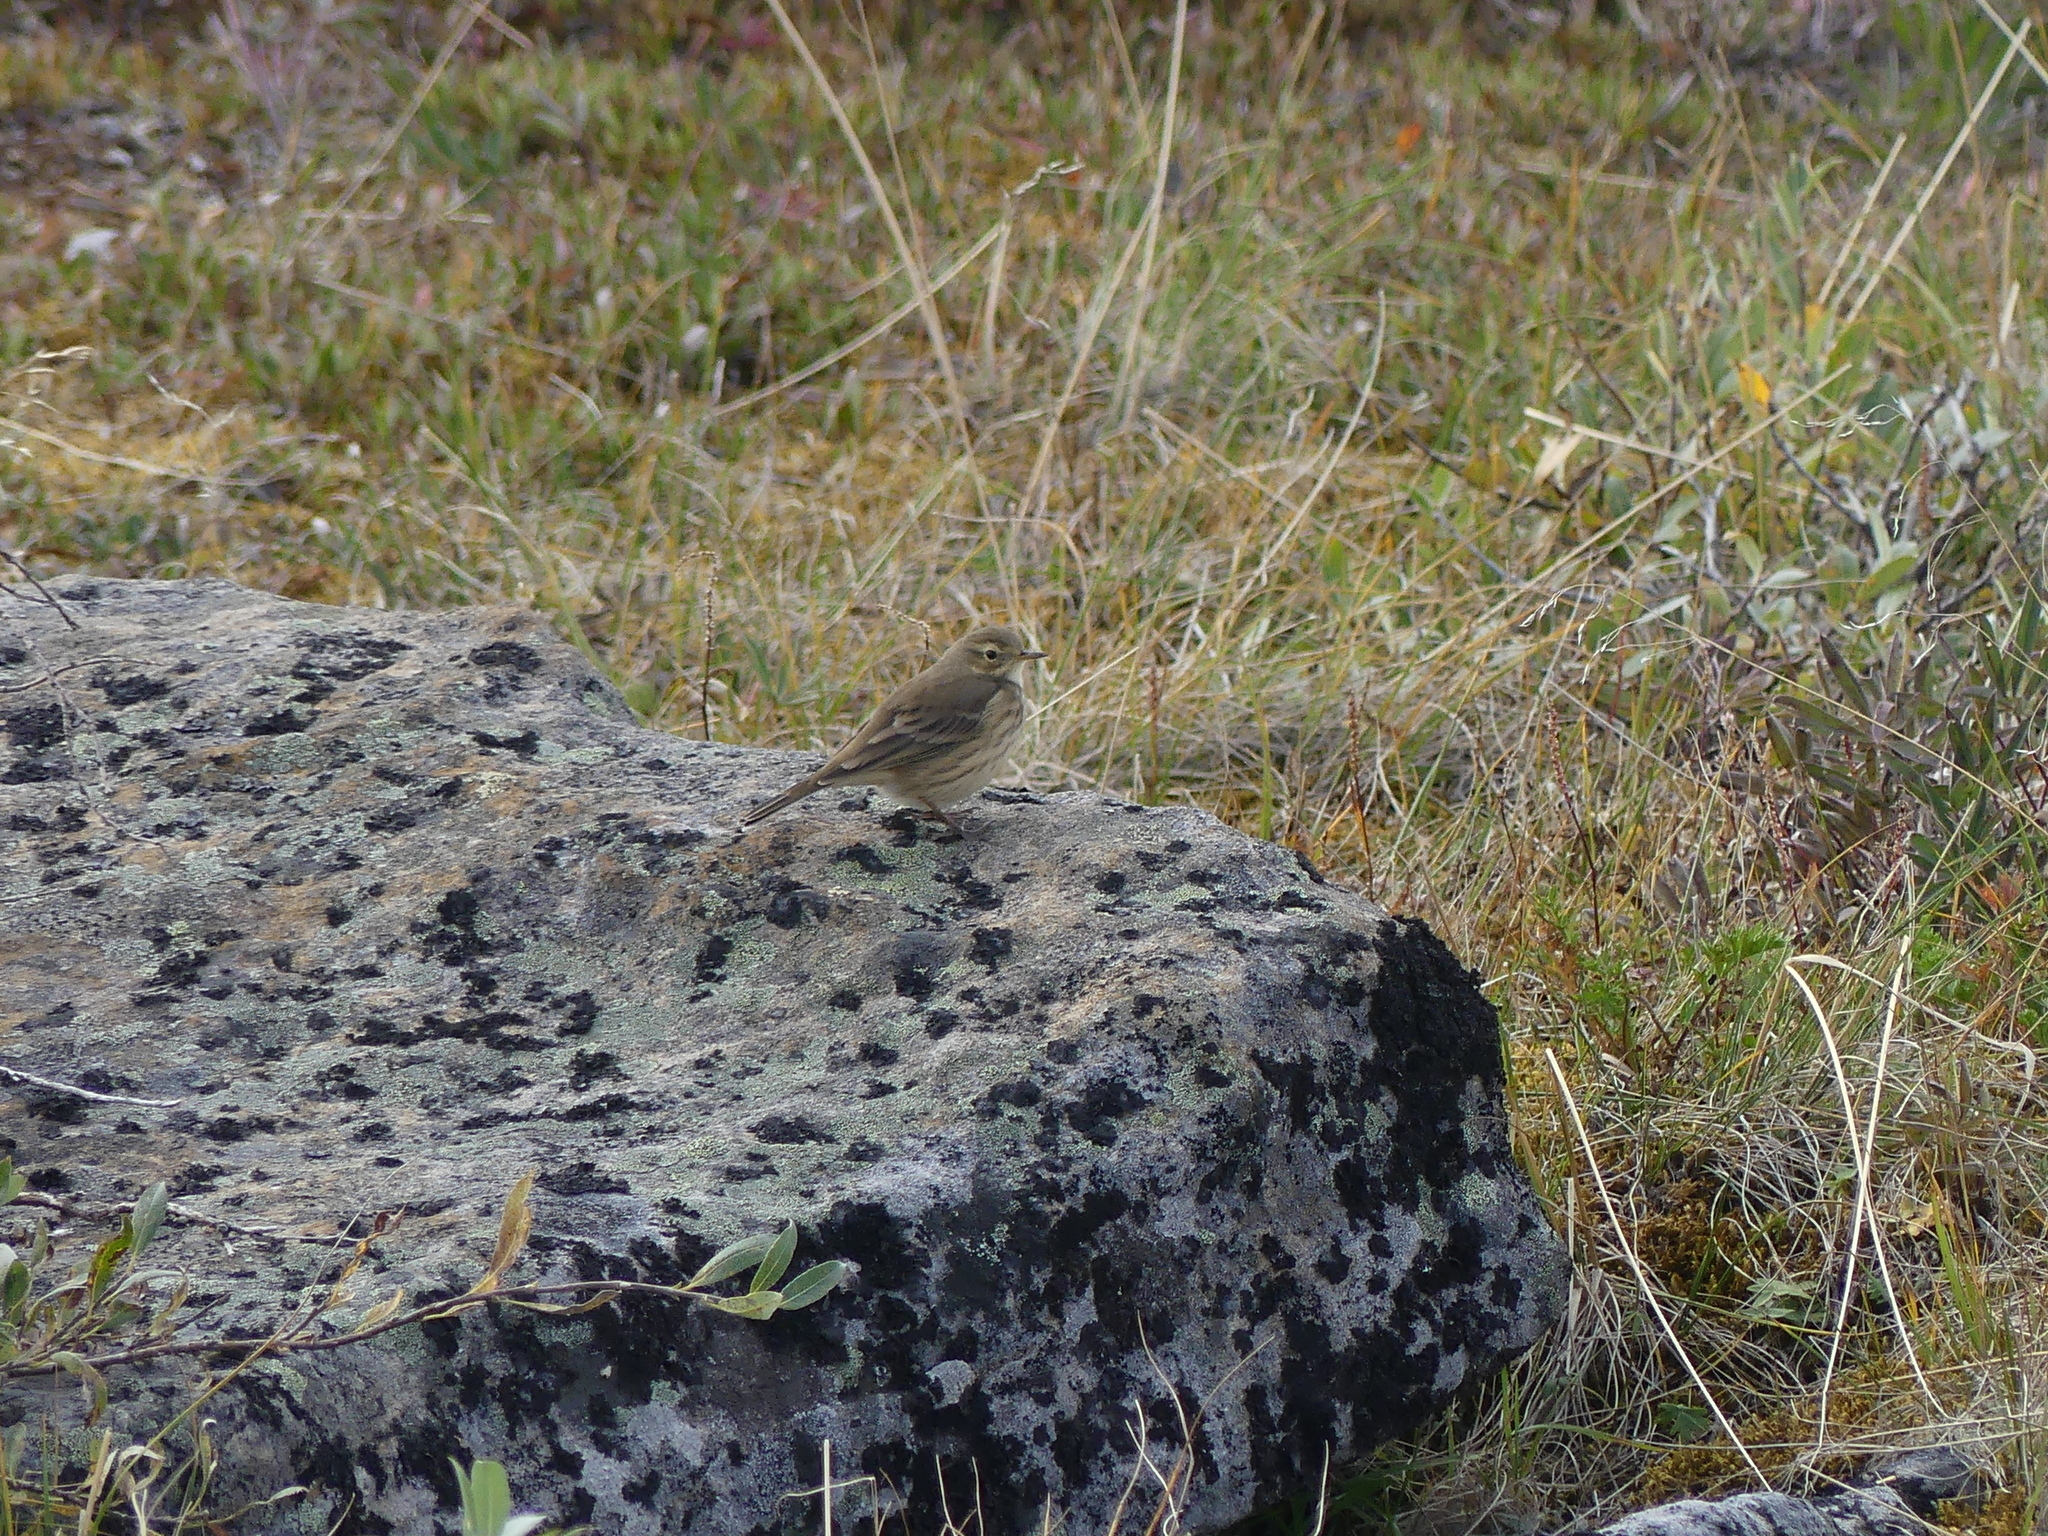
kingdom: Animalia
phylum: Chordata
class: Aves
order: Passeriformes
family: Motacillidae
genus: Anthus
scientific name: Anthus rubescens
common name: Buff-bellied pipit
